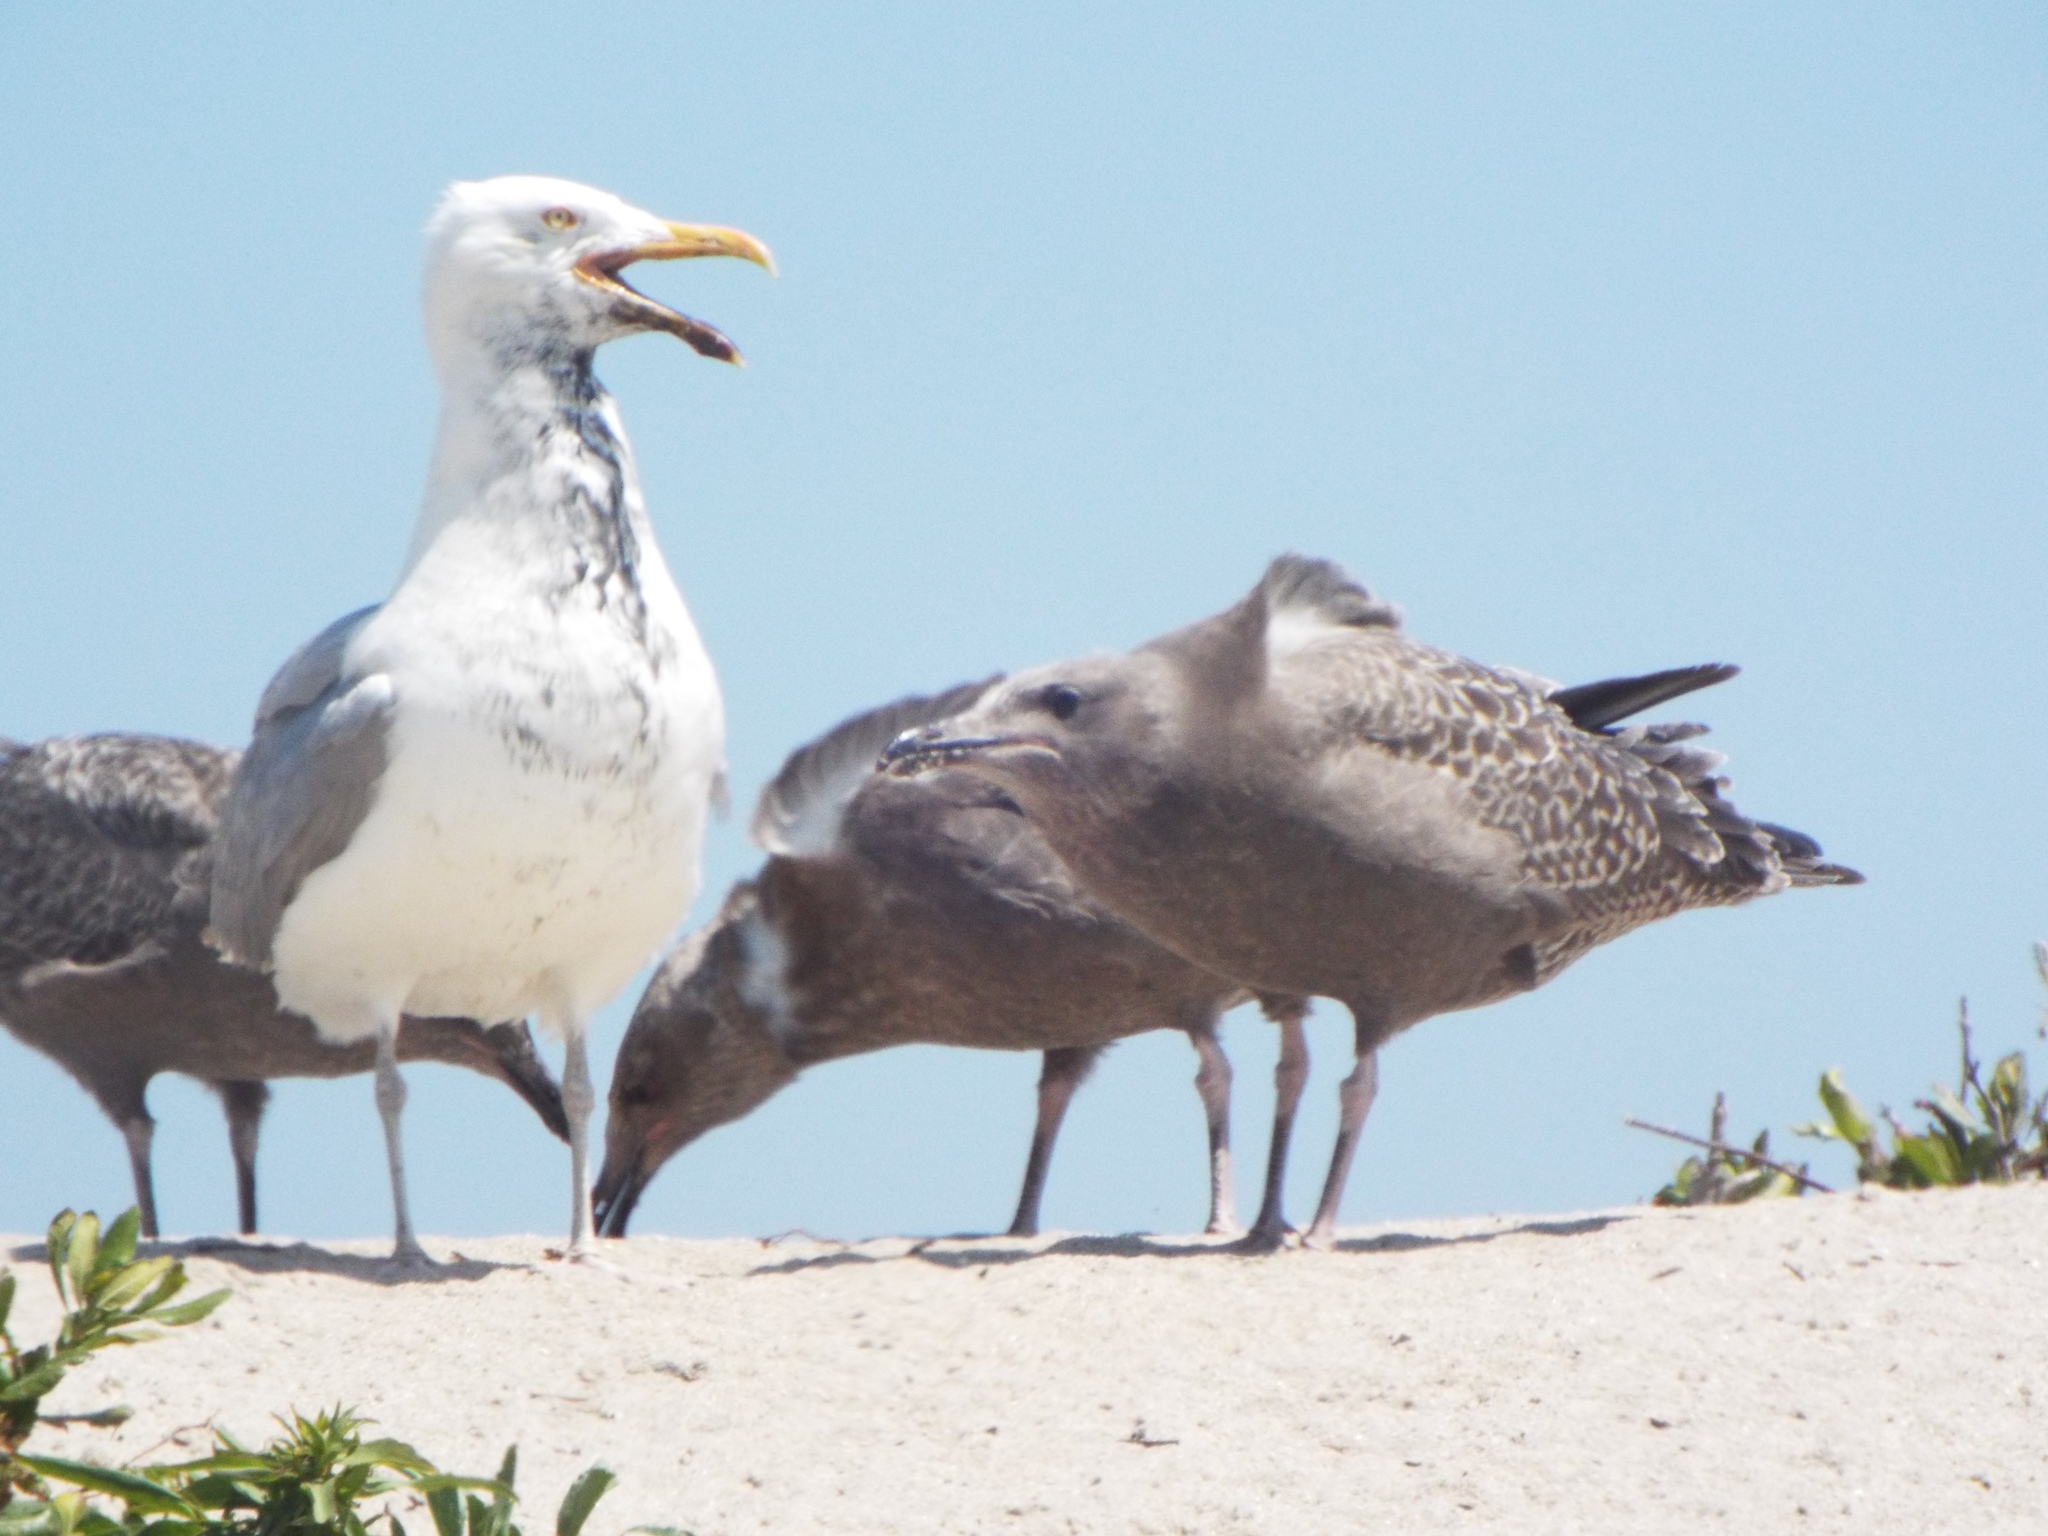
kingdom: Animalia
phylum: Chordata
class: Aves
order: Charadriiformes
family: Laridae
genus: Larus
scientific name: Larus argentatus
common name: Herring gull
